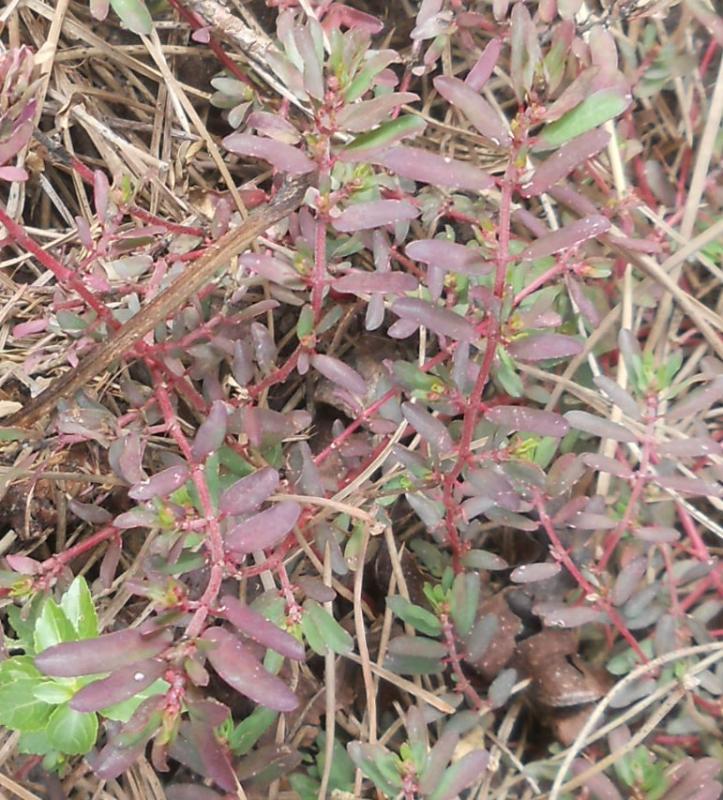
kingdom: Plantae
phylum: Tracheophyta
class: Magnoliopsida
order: Malpighiales
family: Euphorbiaceae
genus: Euphorbia
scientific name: Euphorbia maculata
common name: Spotted spurge
